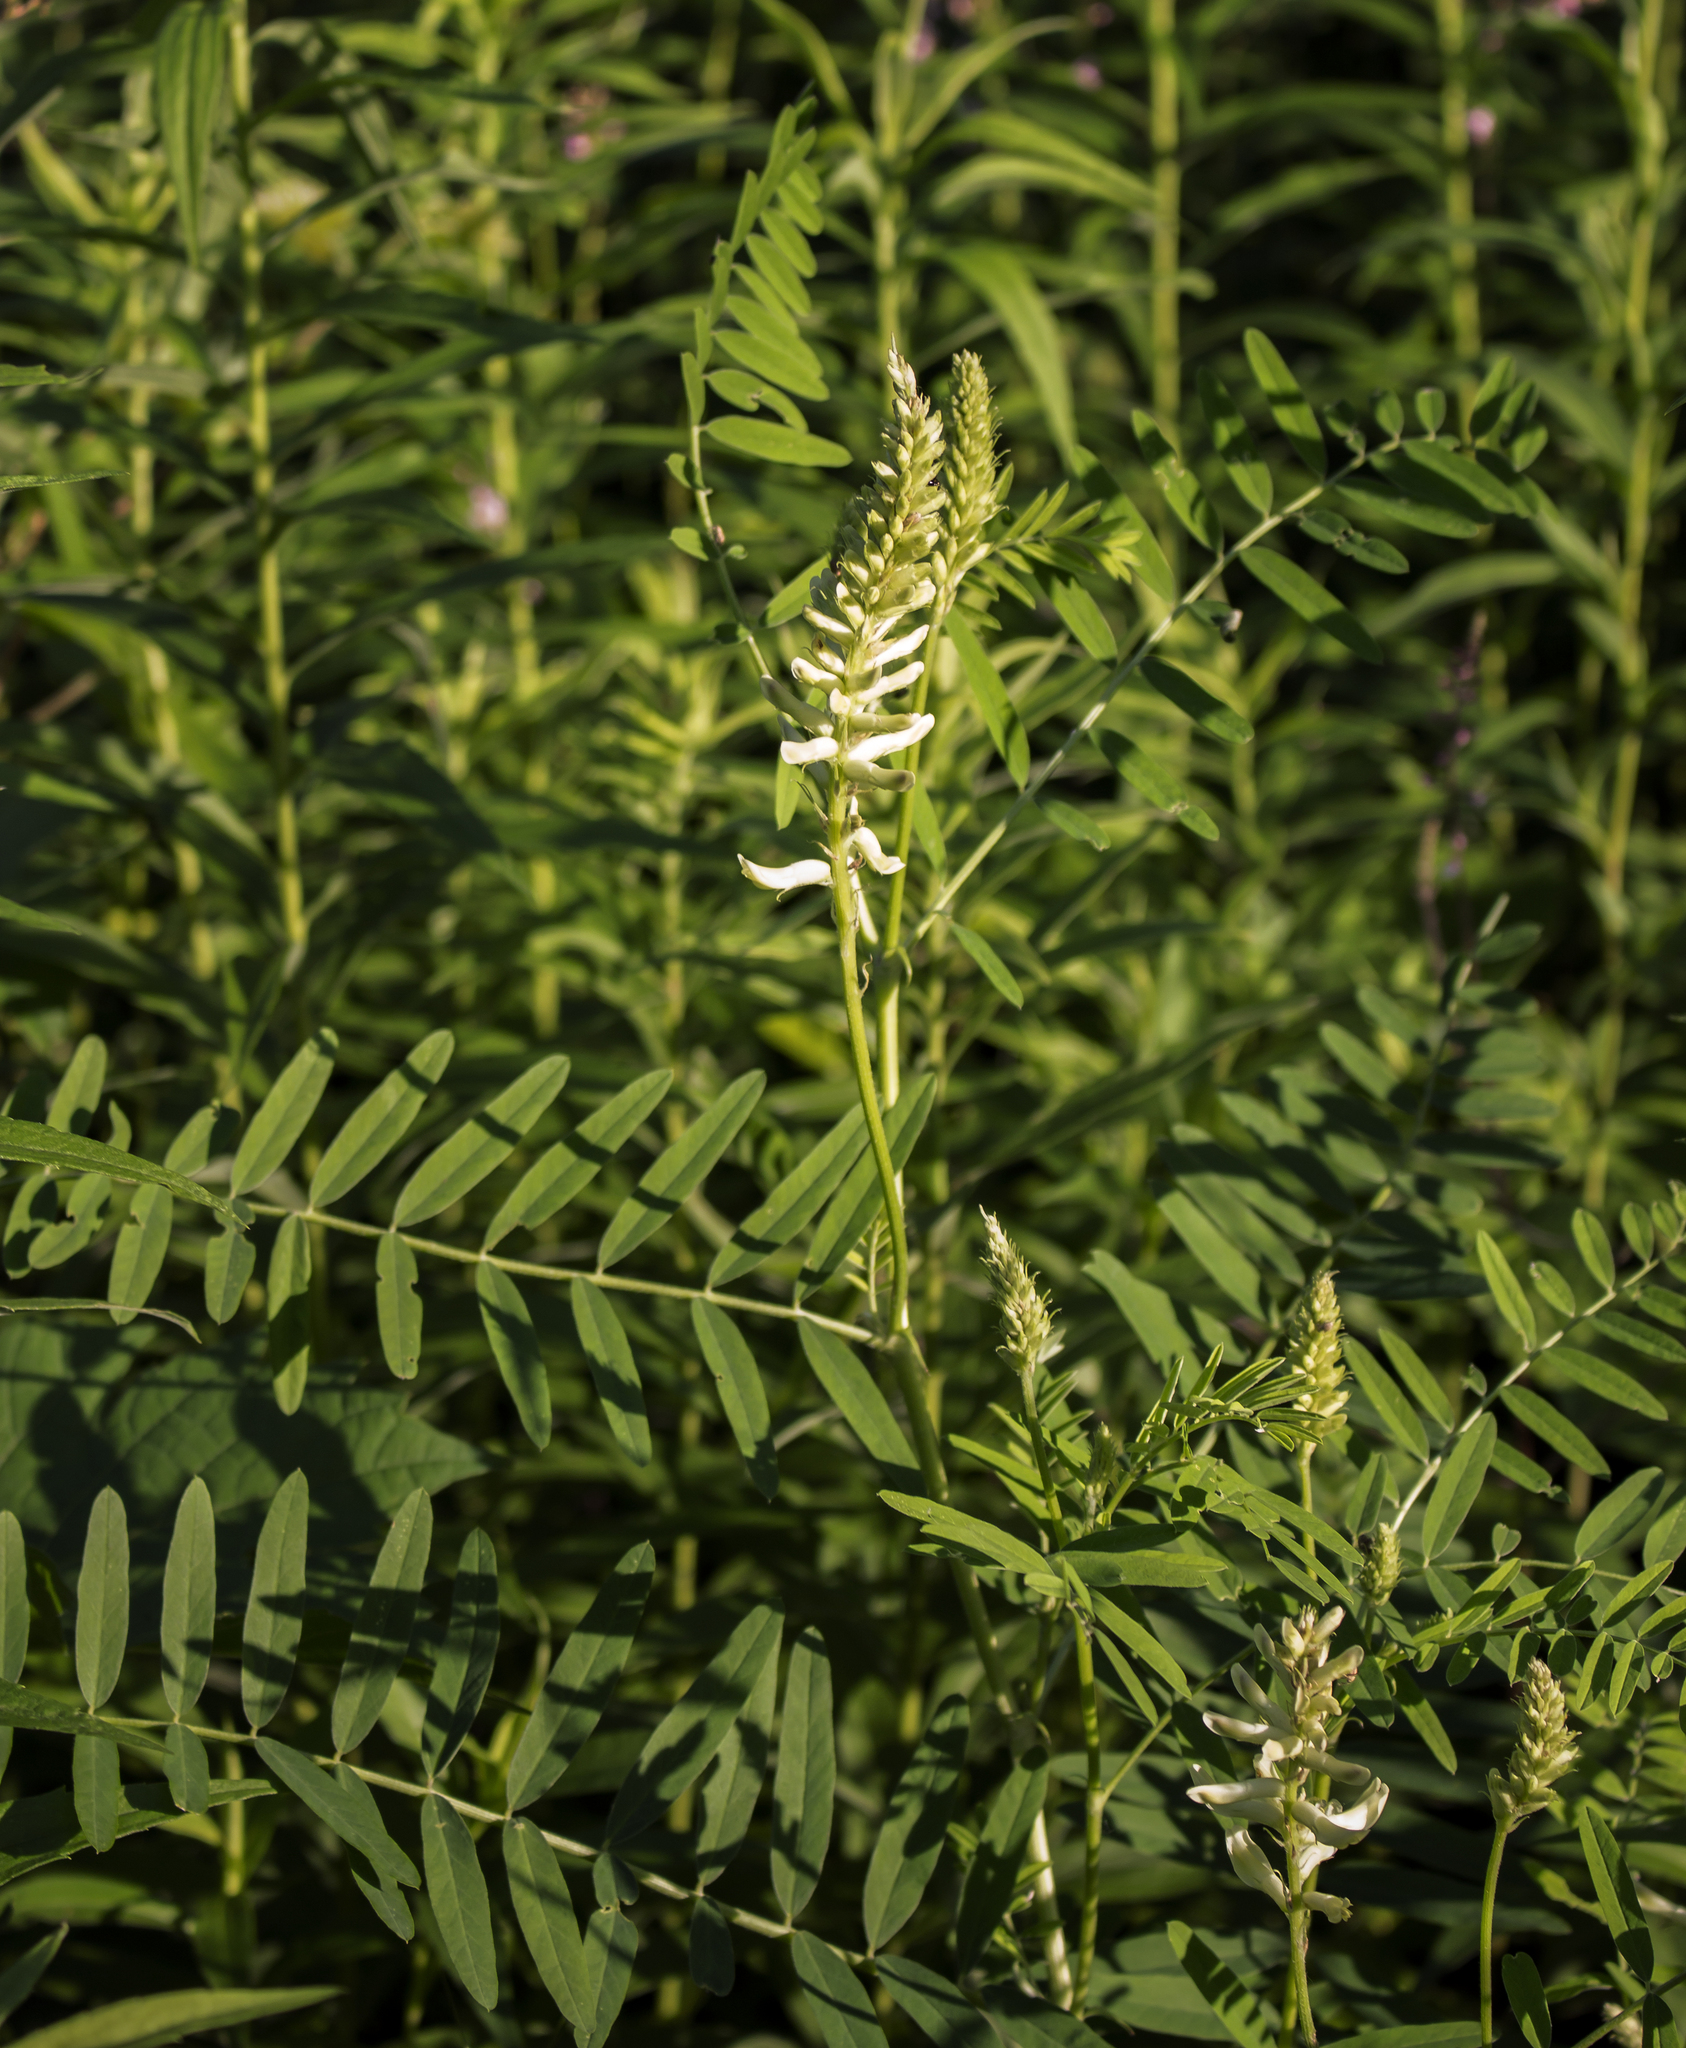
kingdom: Plantae
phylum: Tracheophyta
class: Magnoliopsida
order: Fabales
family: Fabaceae
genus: Astragalus
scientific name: Astragalus canadensis
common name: Canada milk-vetch
